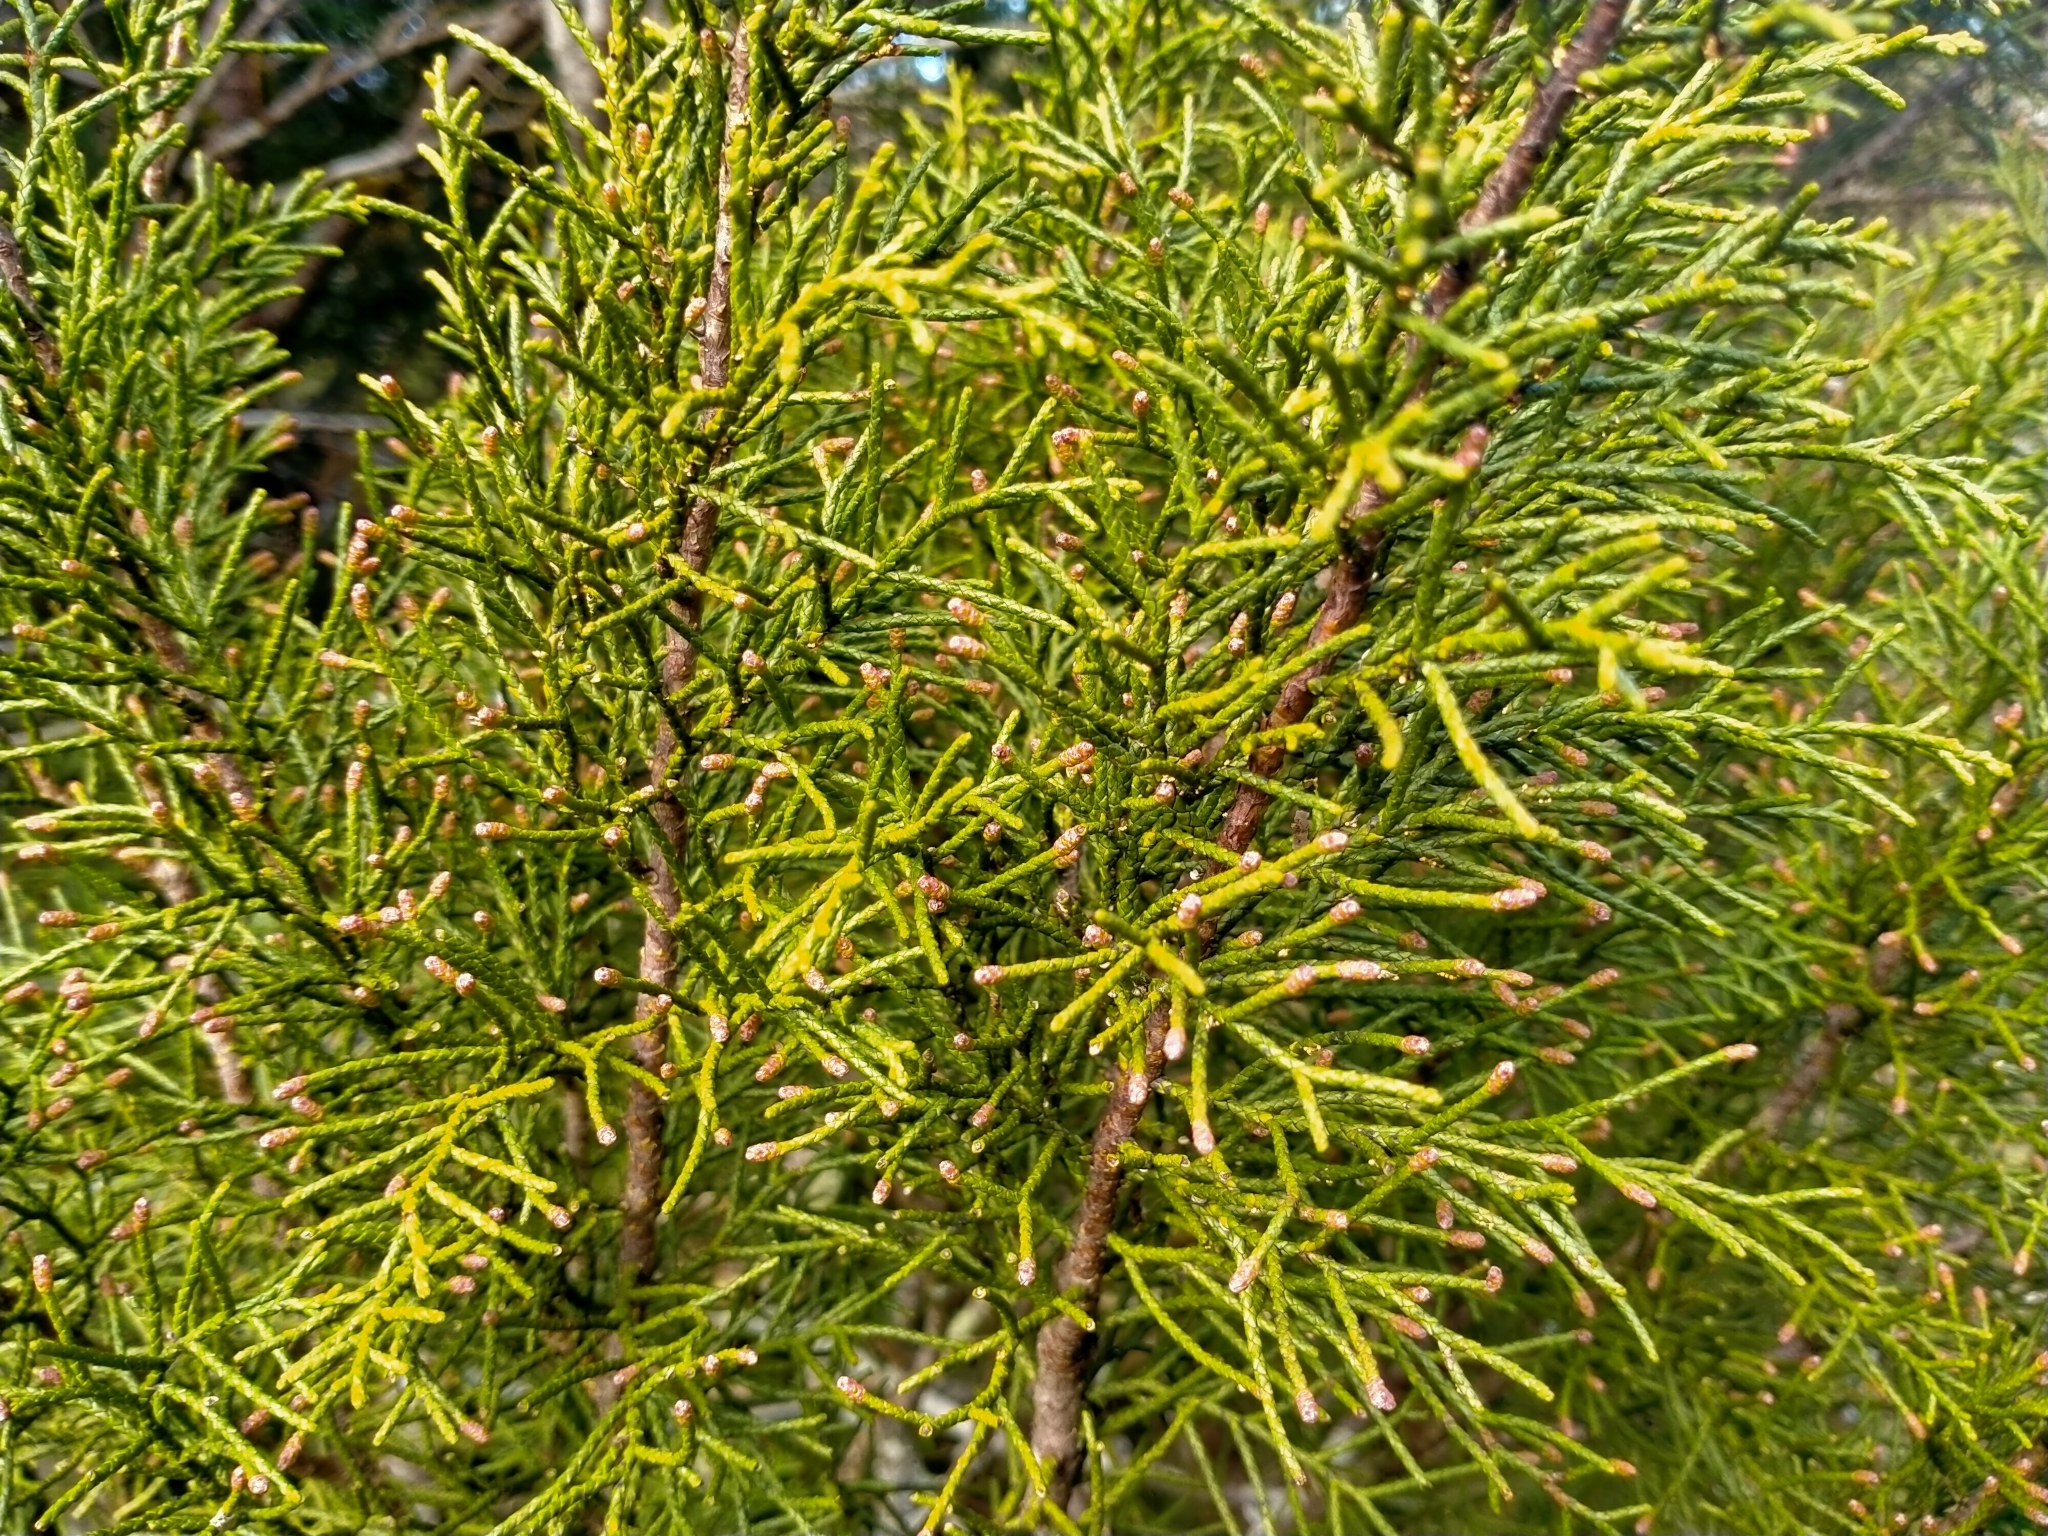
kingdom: Plantae
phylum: Tracheophyta
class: Pinopsida
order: Pinales
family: Podocarpaceae
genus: Halocarpus
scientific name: Halocarpus bidwillii
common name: Bog pine
